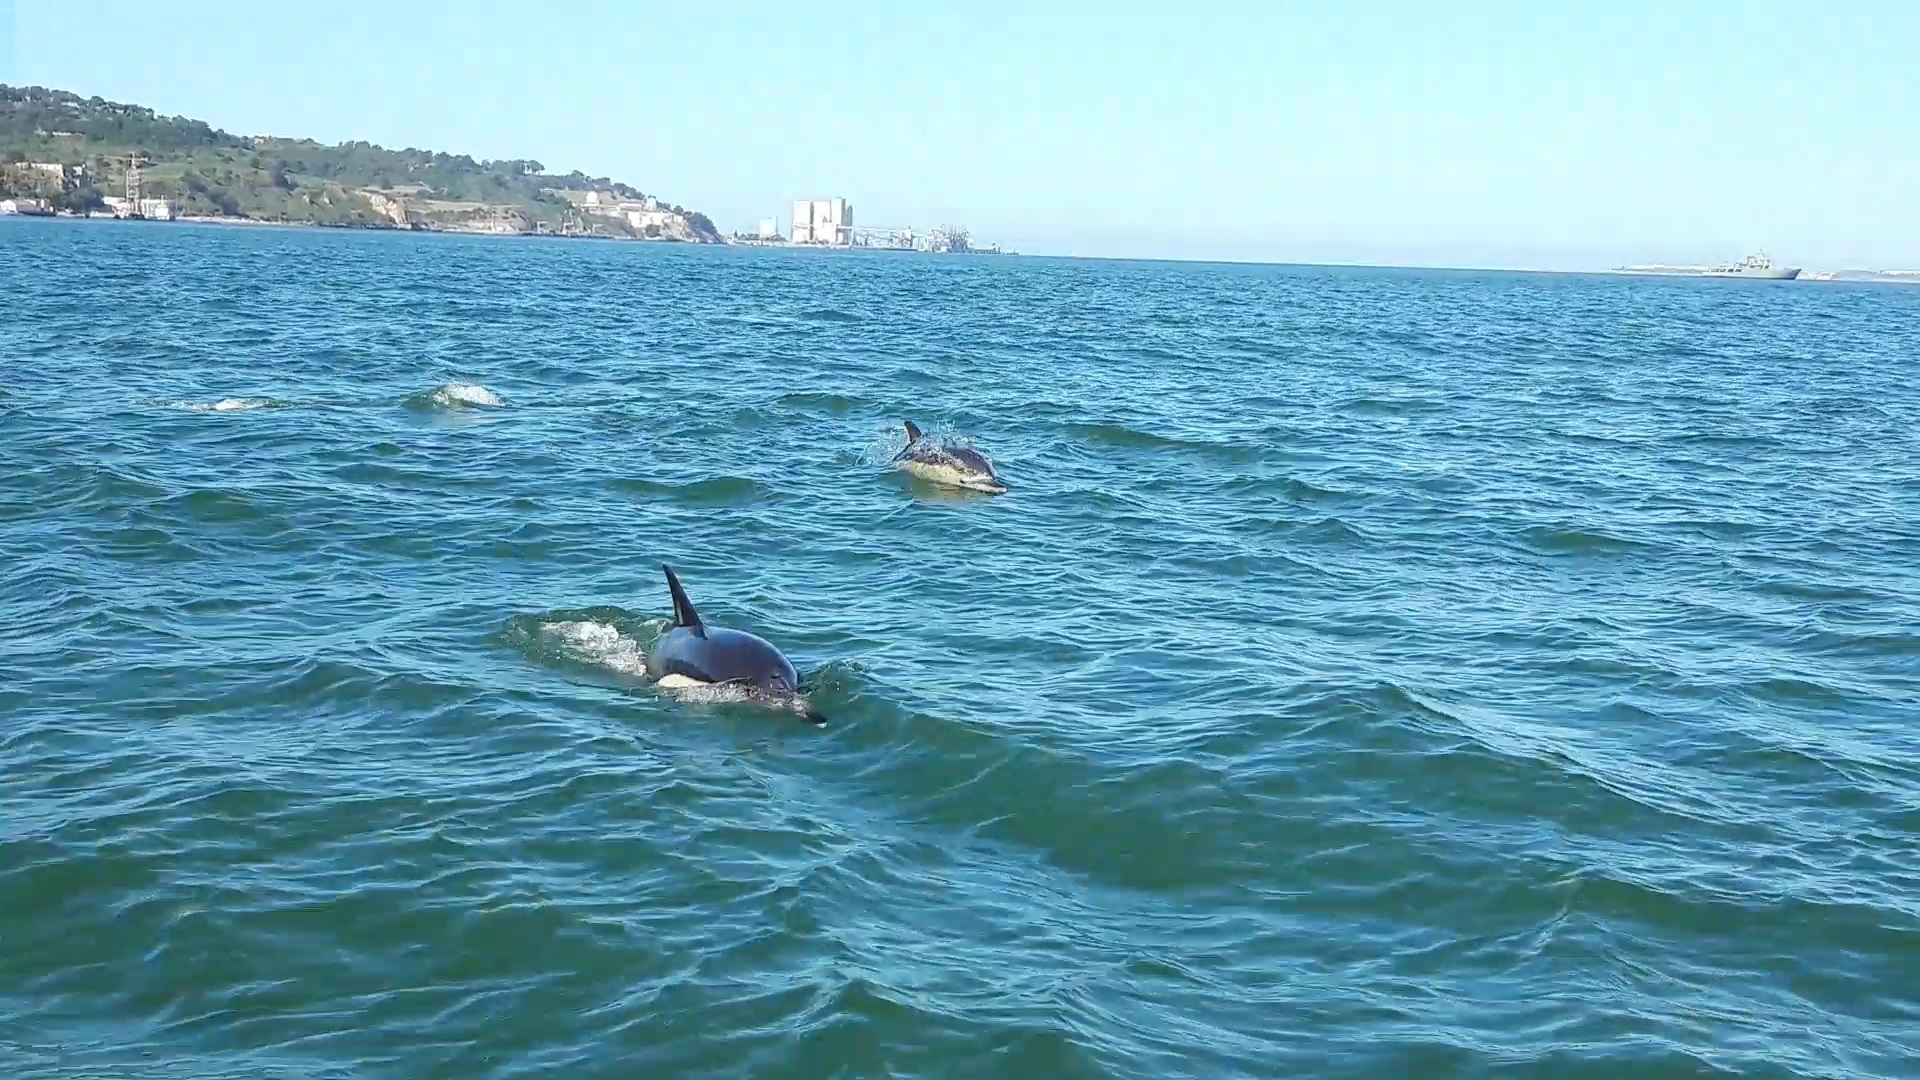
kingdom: Animalia
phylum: Chordata
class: Mammalia
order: Cetacea
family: Delphinidae
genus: Delphinus
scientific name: Delphinus delphis
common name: Common dolphin
